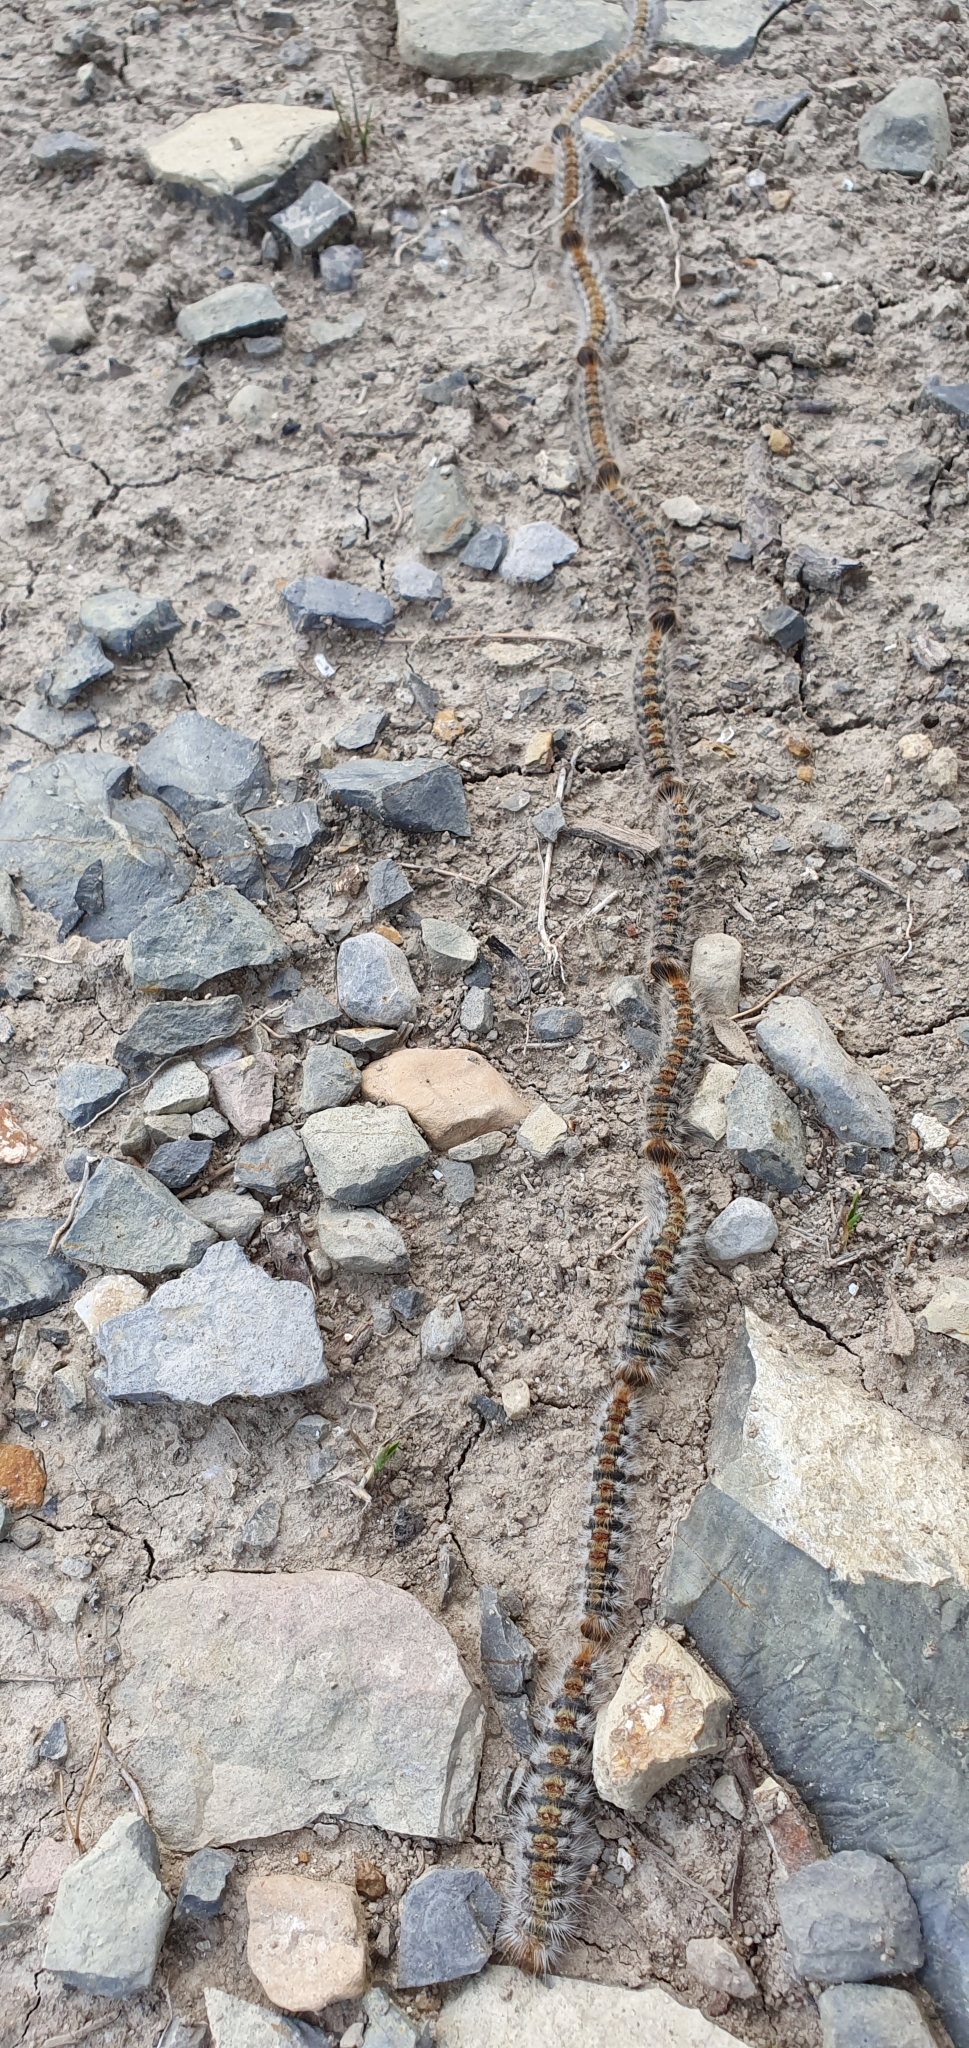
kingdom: Animalia
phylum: Arthropoda
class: Insecta
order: Lepidoptera
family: Notodontidae
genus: Thaumetopoea
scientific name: Thaumetopoea pityocampa
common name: Pine processionary
